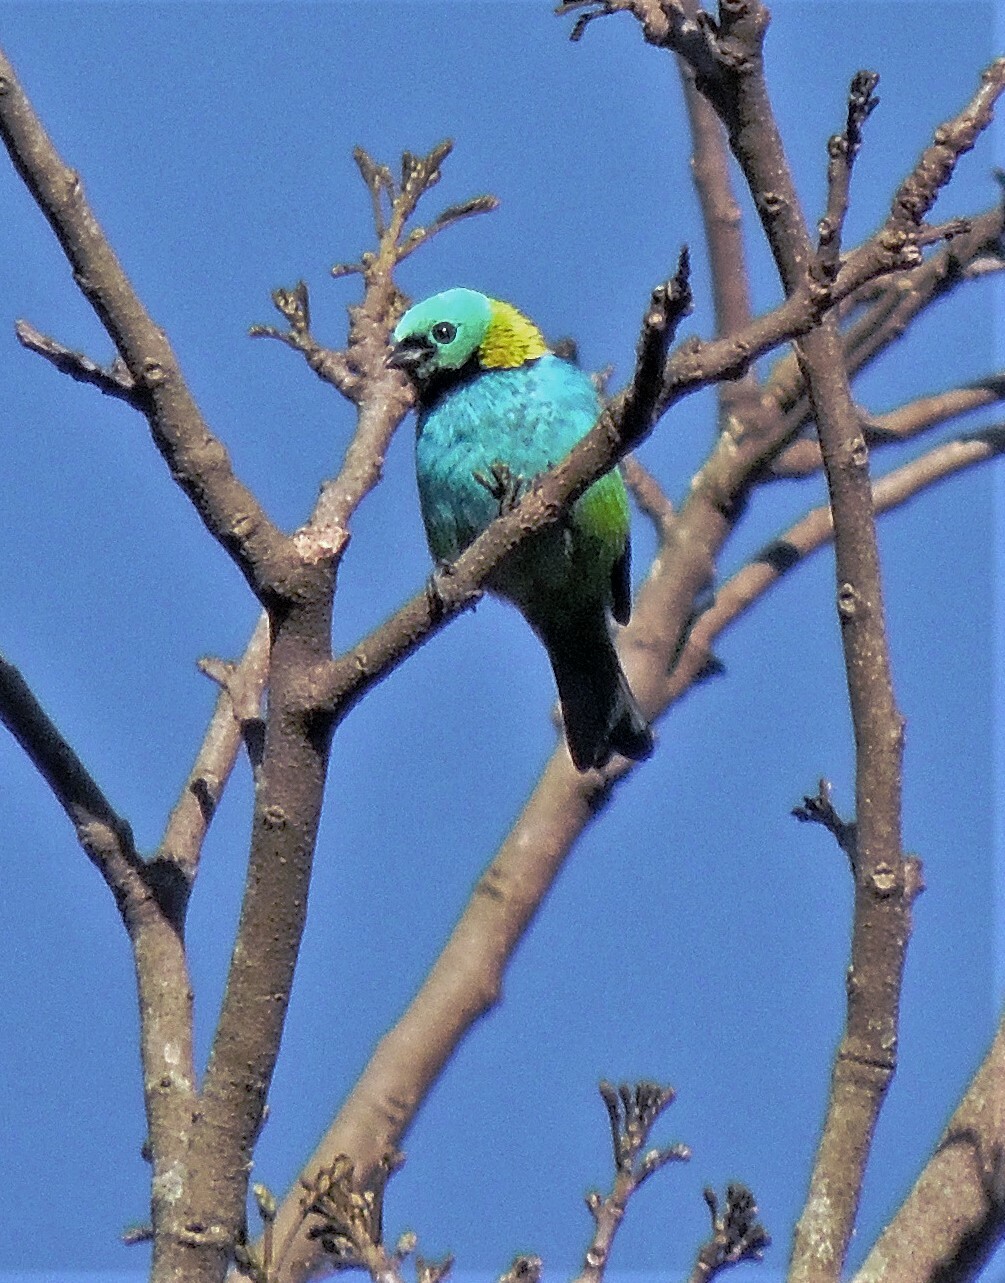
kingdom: Animalia
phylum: Chordata
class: Aves
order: Passeriformes
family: Thraupidae
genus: Tangara
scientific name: Tangara seledon
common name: Green-headed tanager
